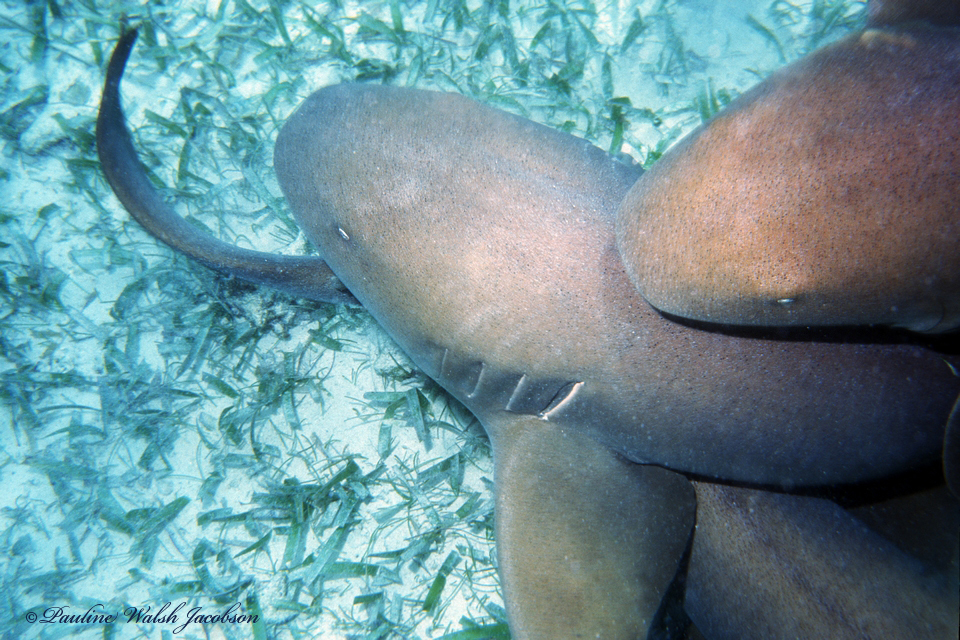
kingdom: Animalia
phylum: Chordata
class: Elasmobranchii
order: Orectolobiformes
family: Ginglymostomatidae
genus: Ginglymostoma
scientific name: Ginglymostoma cirratum
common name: Nurse shark
